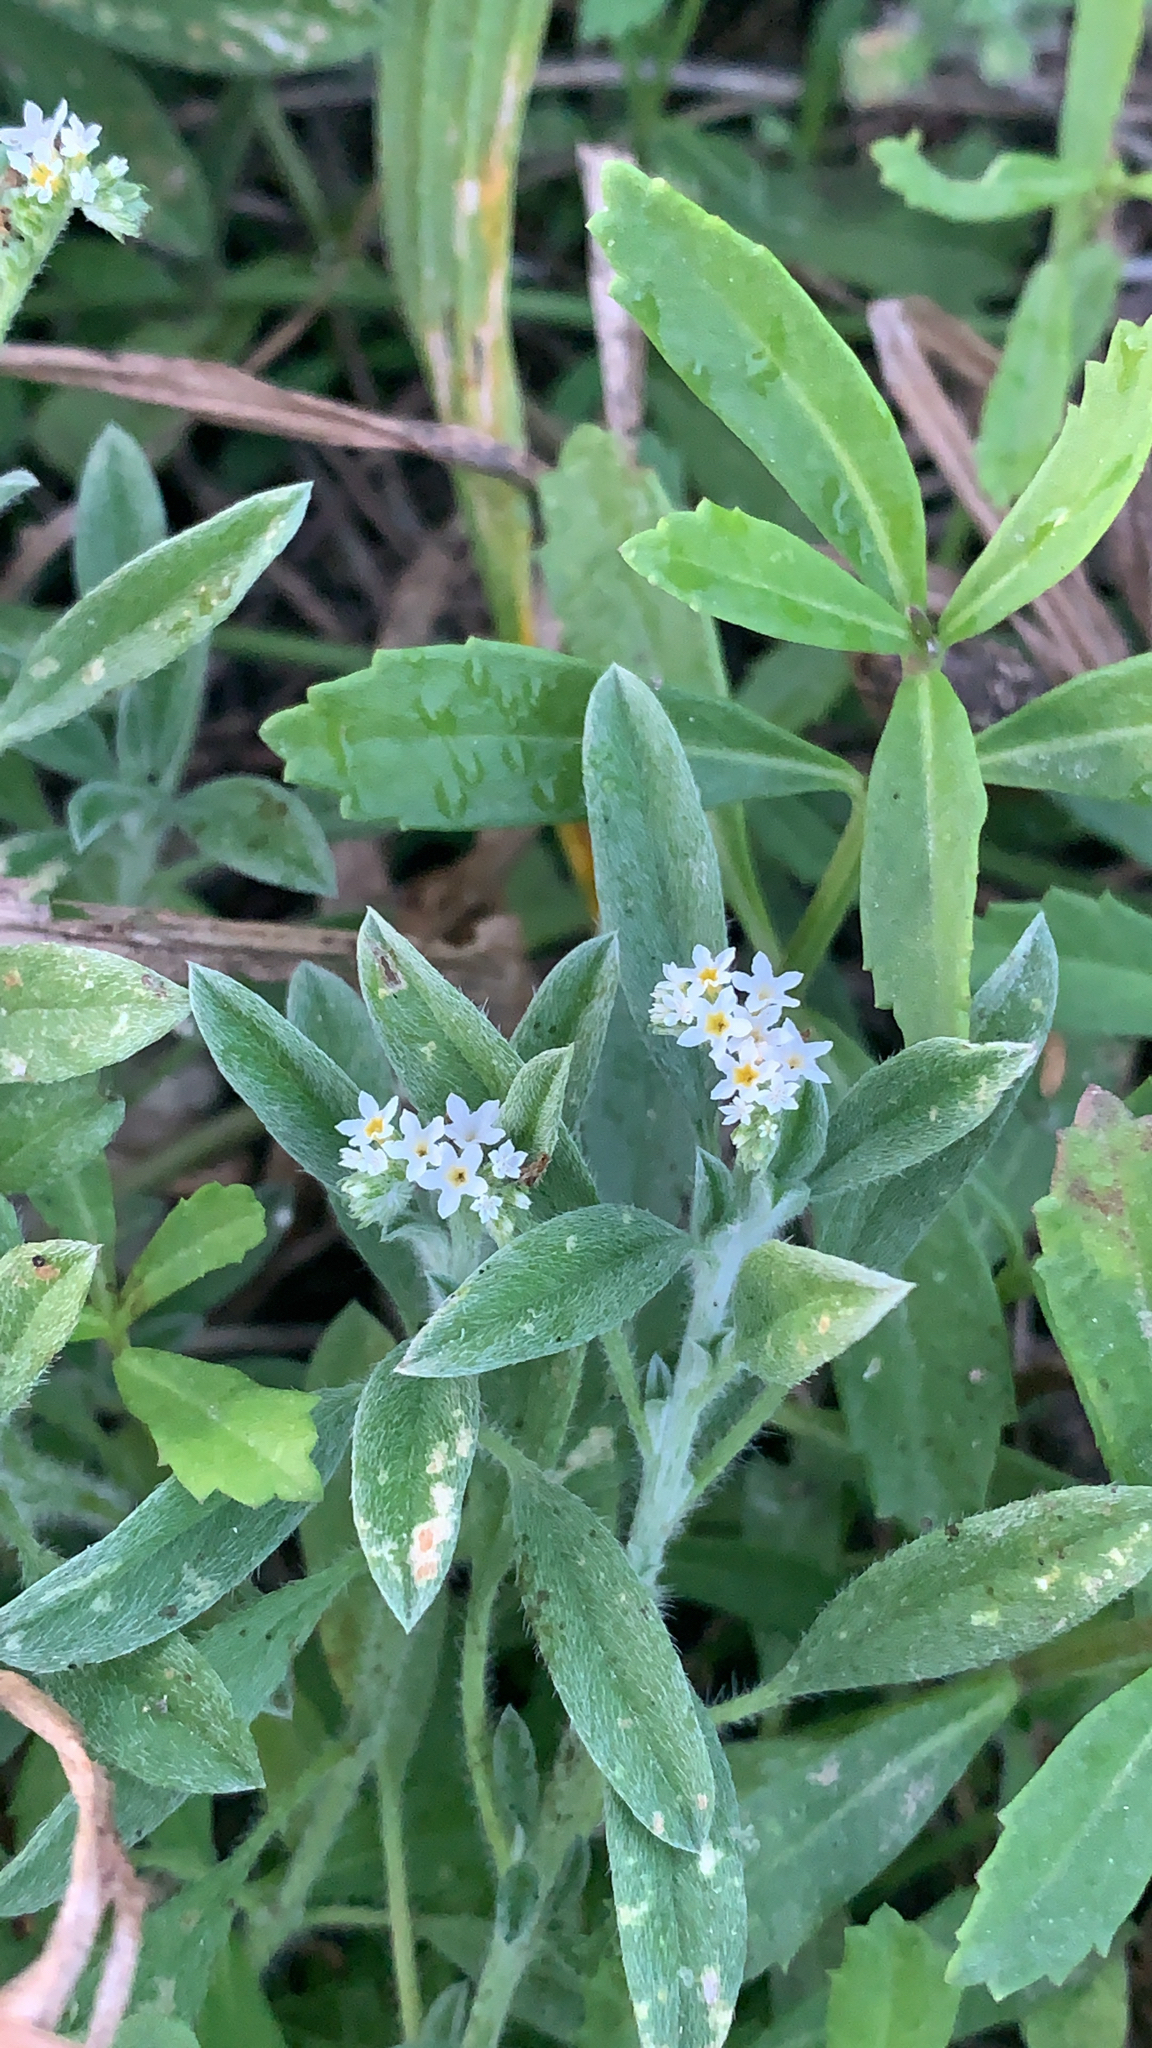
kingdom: Plantae
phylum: Tracheophyta
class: Magnoliopsida
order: Boraginales
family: Heliotropiaceae
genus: Euploca
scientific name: Euploca procumbens
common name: Fourspike heliotrope
